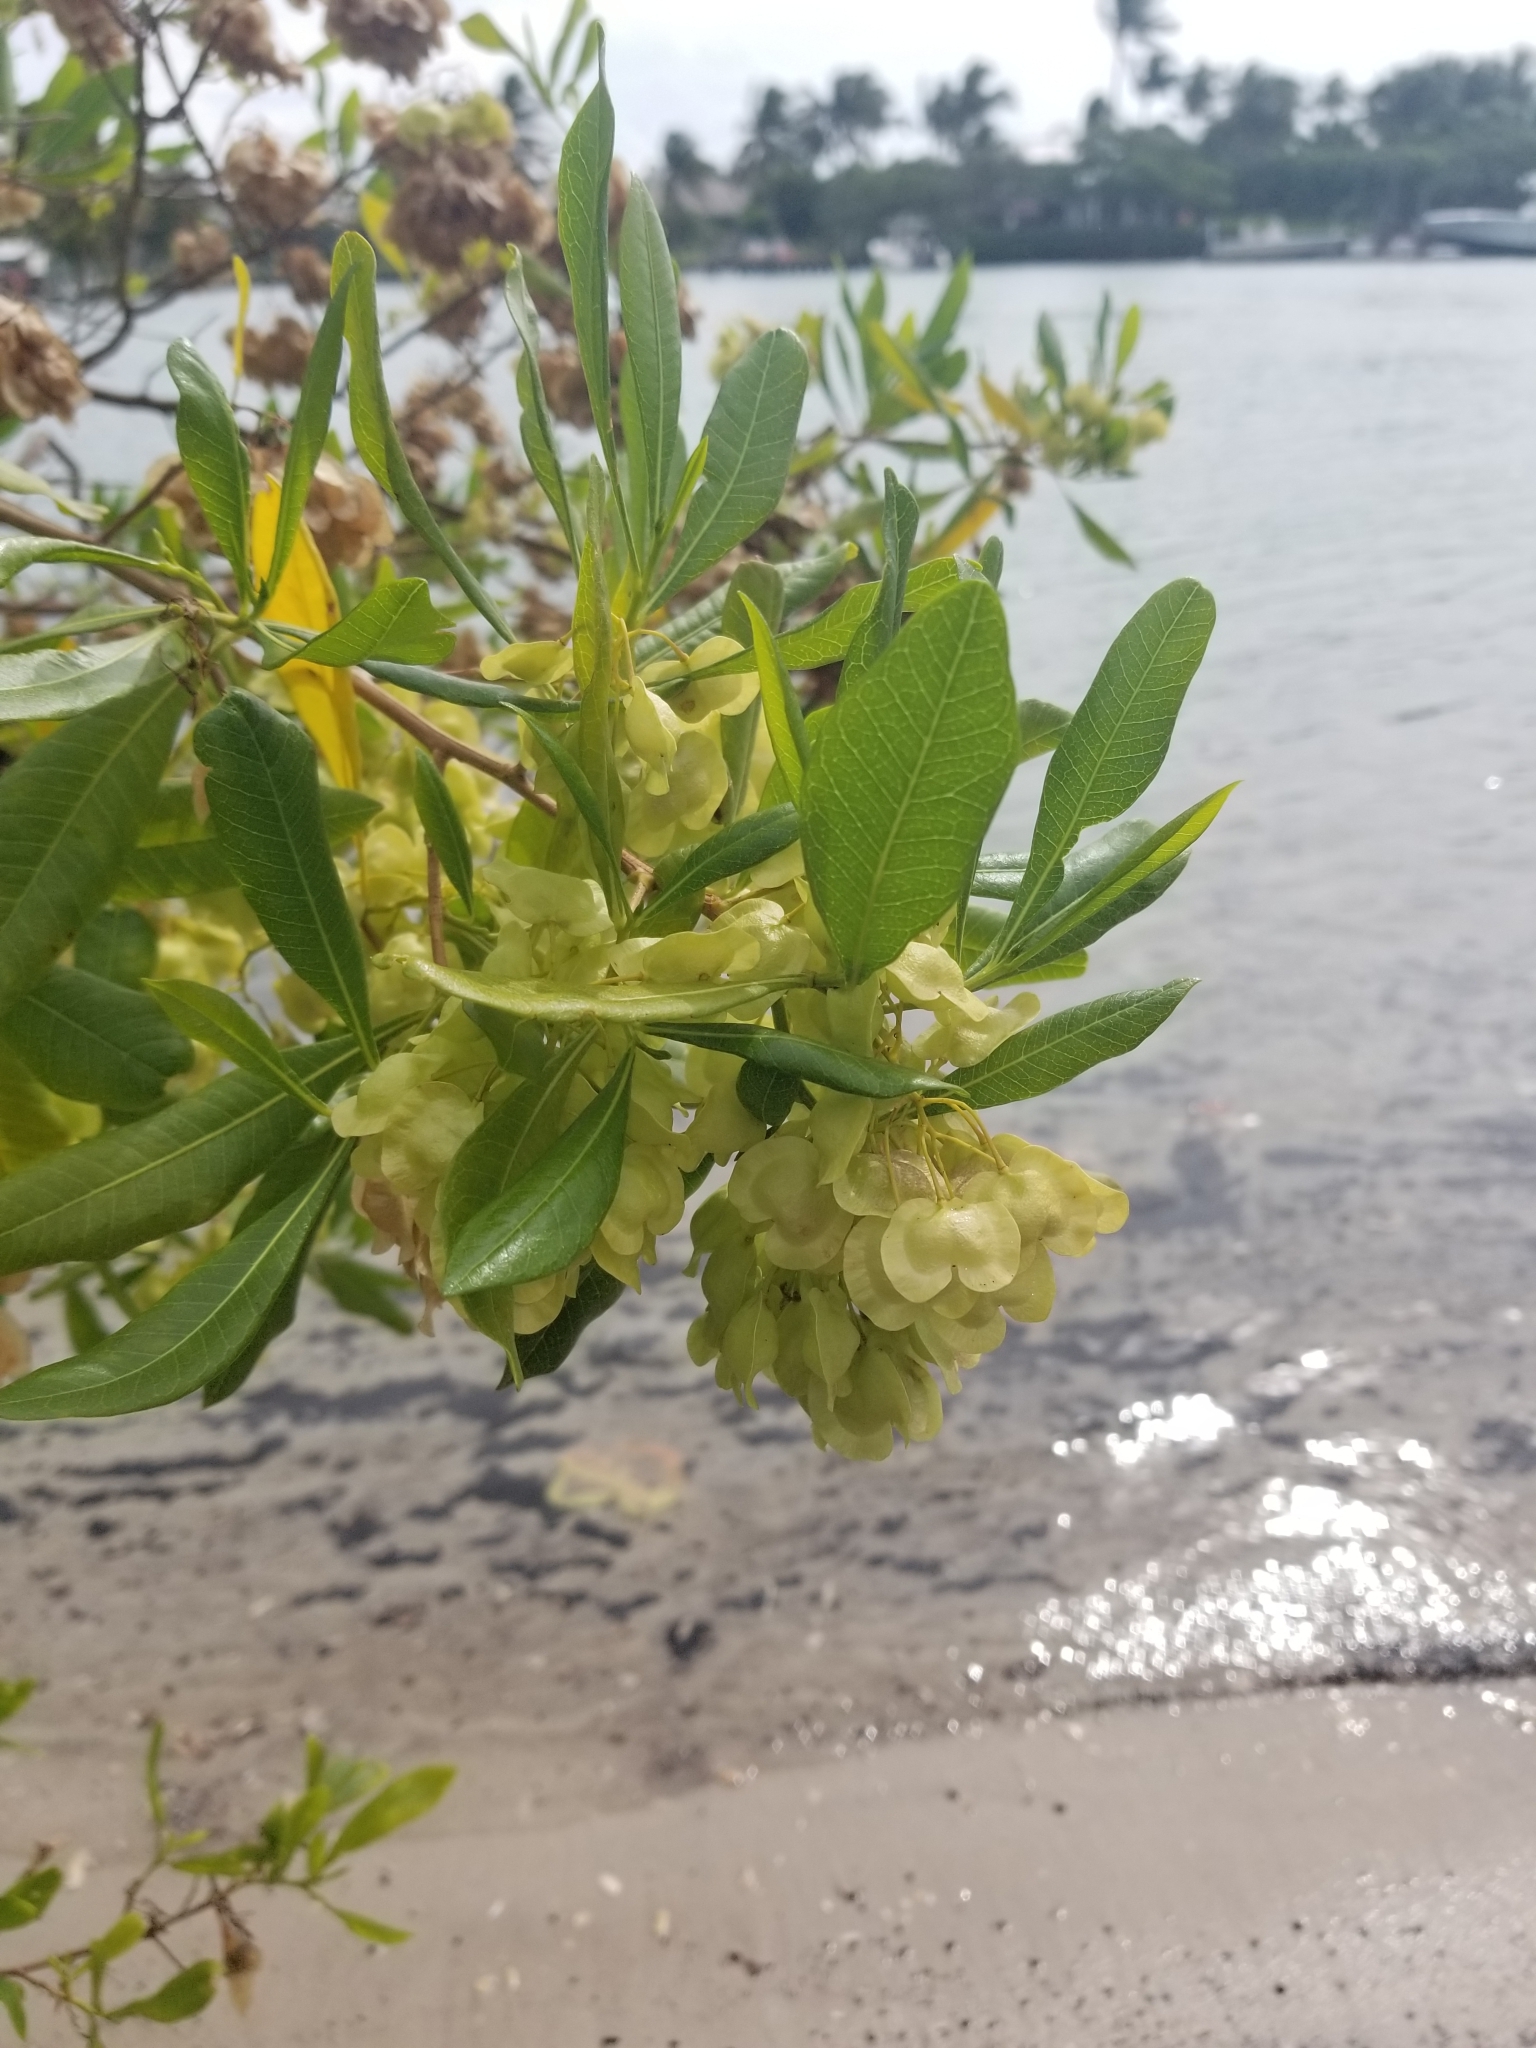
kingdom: Plantae
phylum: Tracheophyta
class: Magnoliopsida
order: Sapindales
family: Sapindaceae
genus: Dodonaea
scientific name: Dodonaea viscosa
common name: Hopbush
